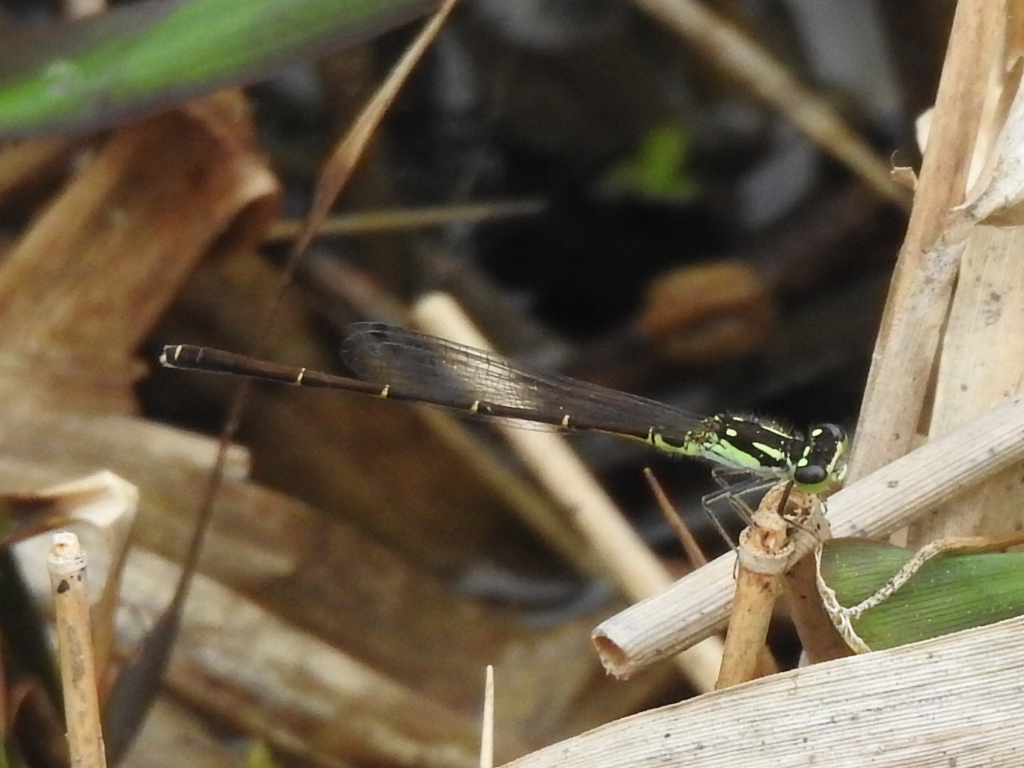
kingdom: Animalia
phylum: Arthropoda
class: Insecta
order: Odonata
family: Coenagrionidae
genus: Ischnura
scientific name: Ischnura posita
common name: Fragile forktail
